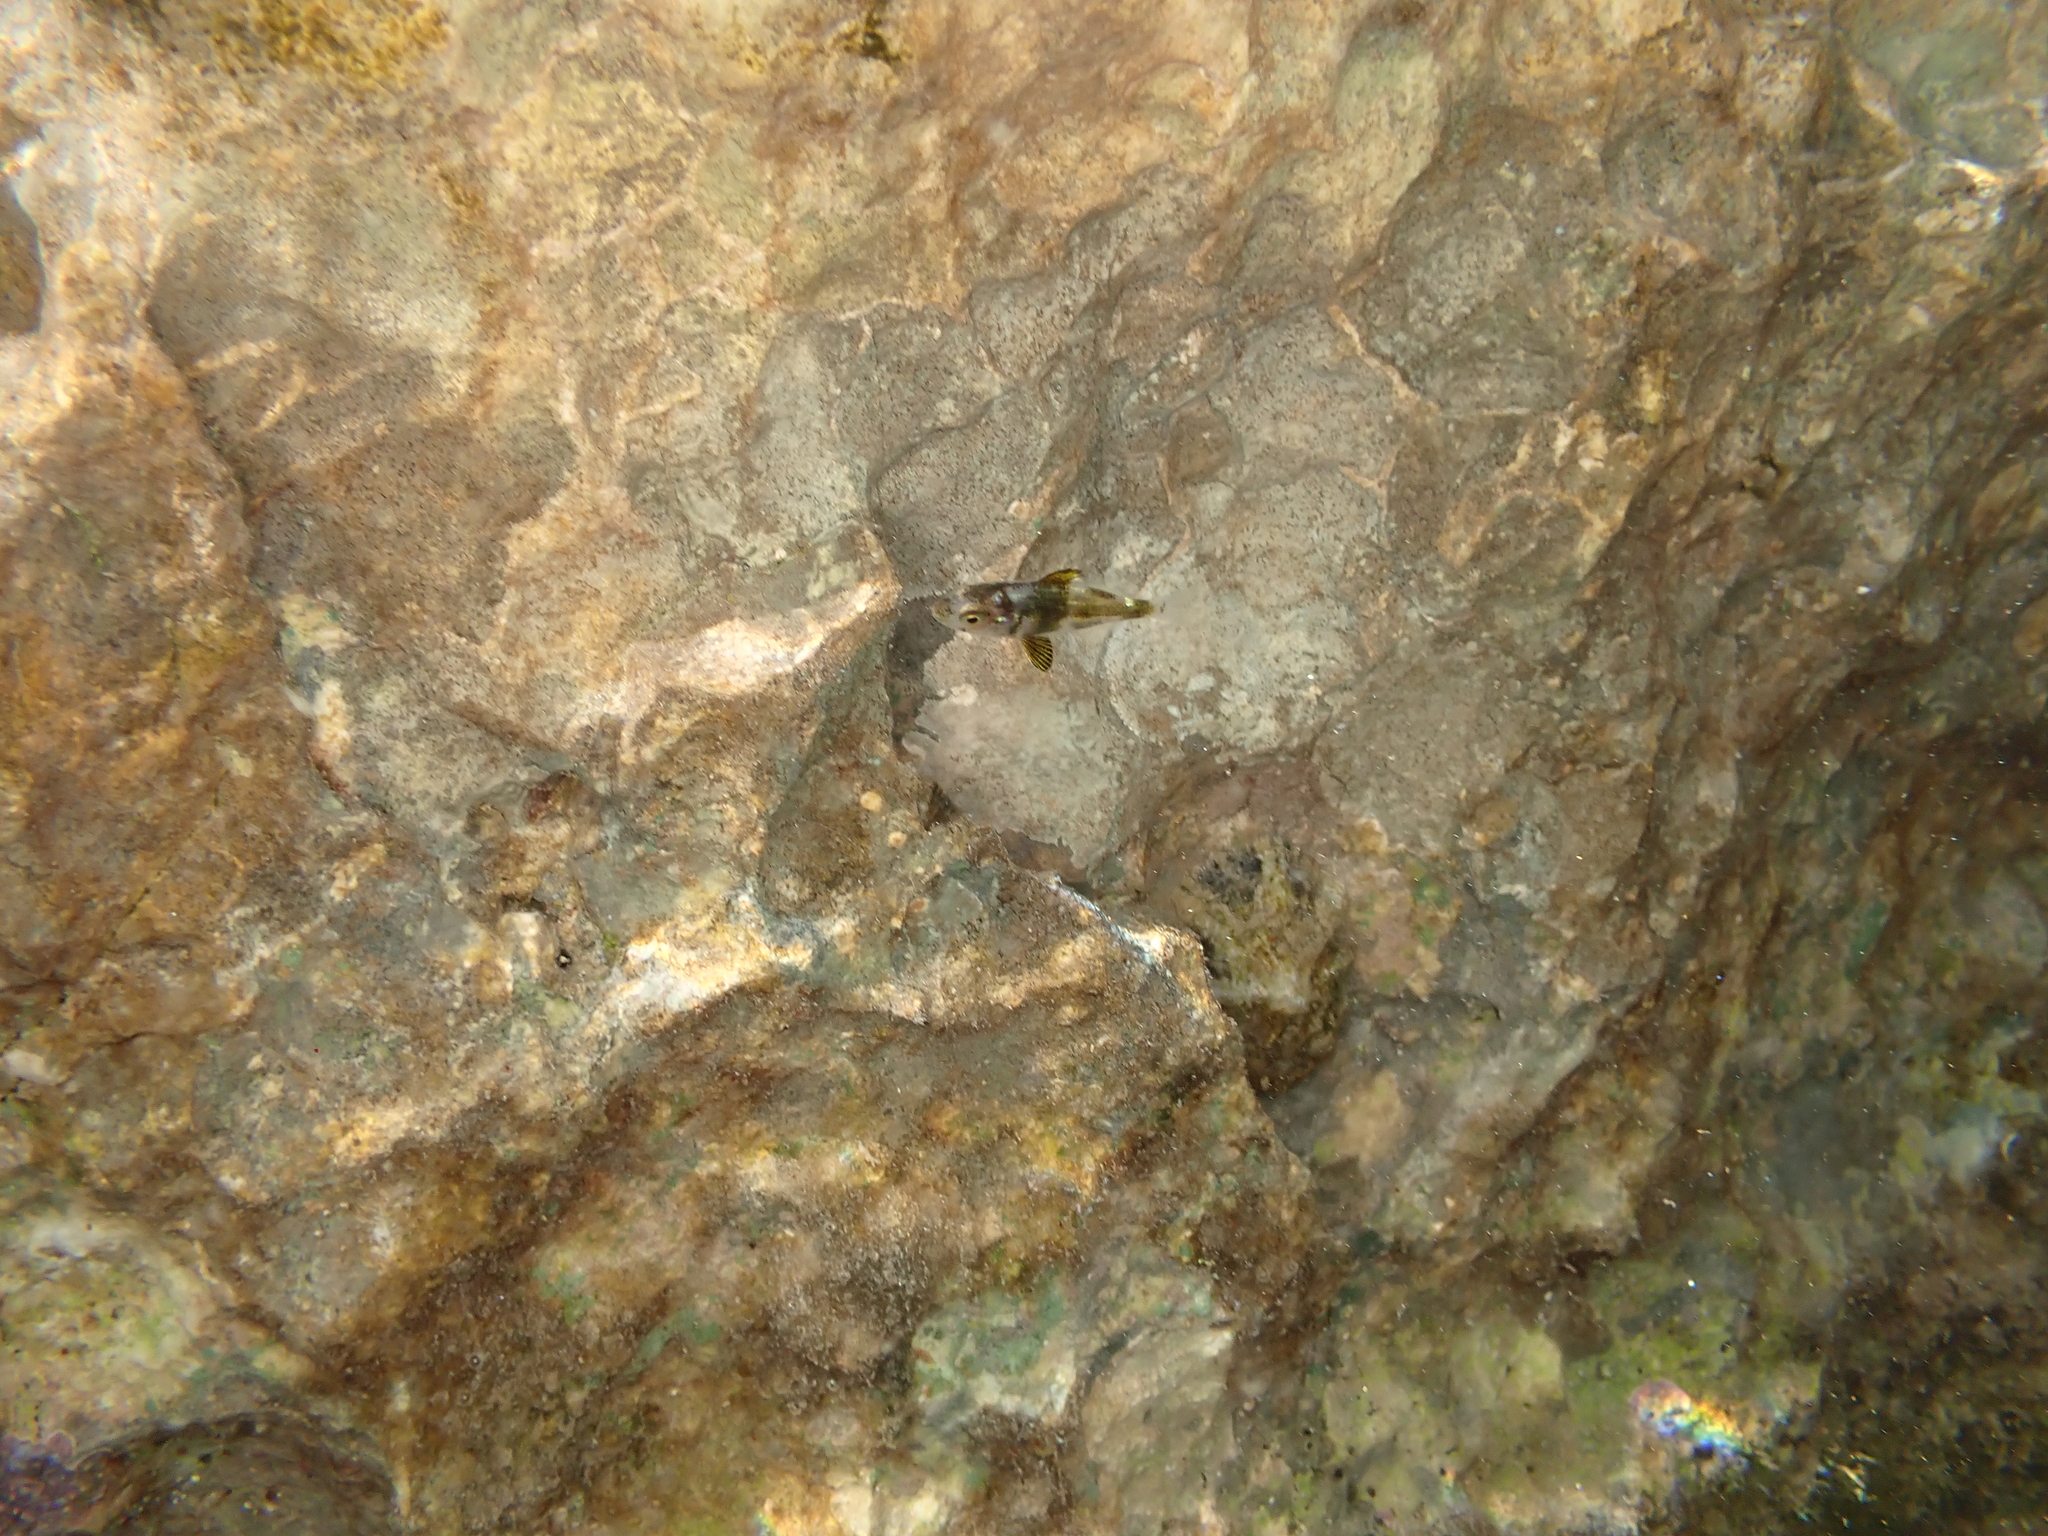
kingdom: Animalia
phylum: Chordata
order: Perciformes
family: Sparidae
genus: Diplodus
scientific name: Diplodus puntazzo
